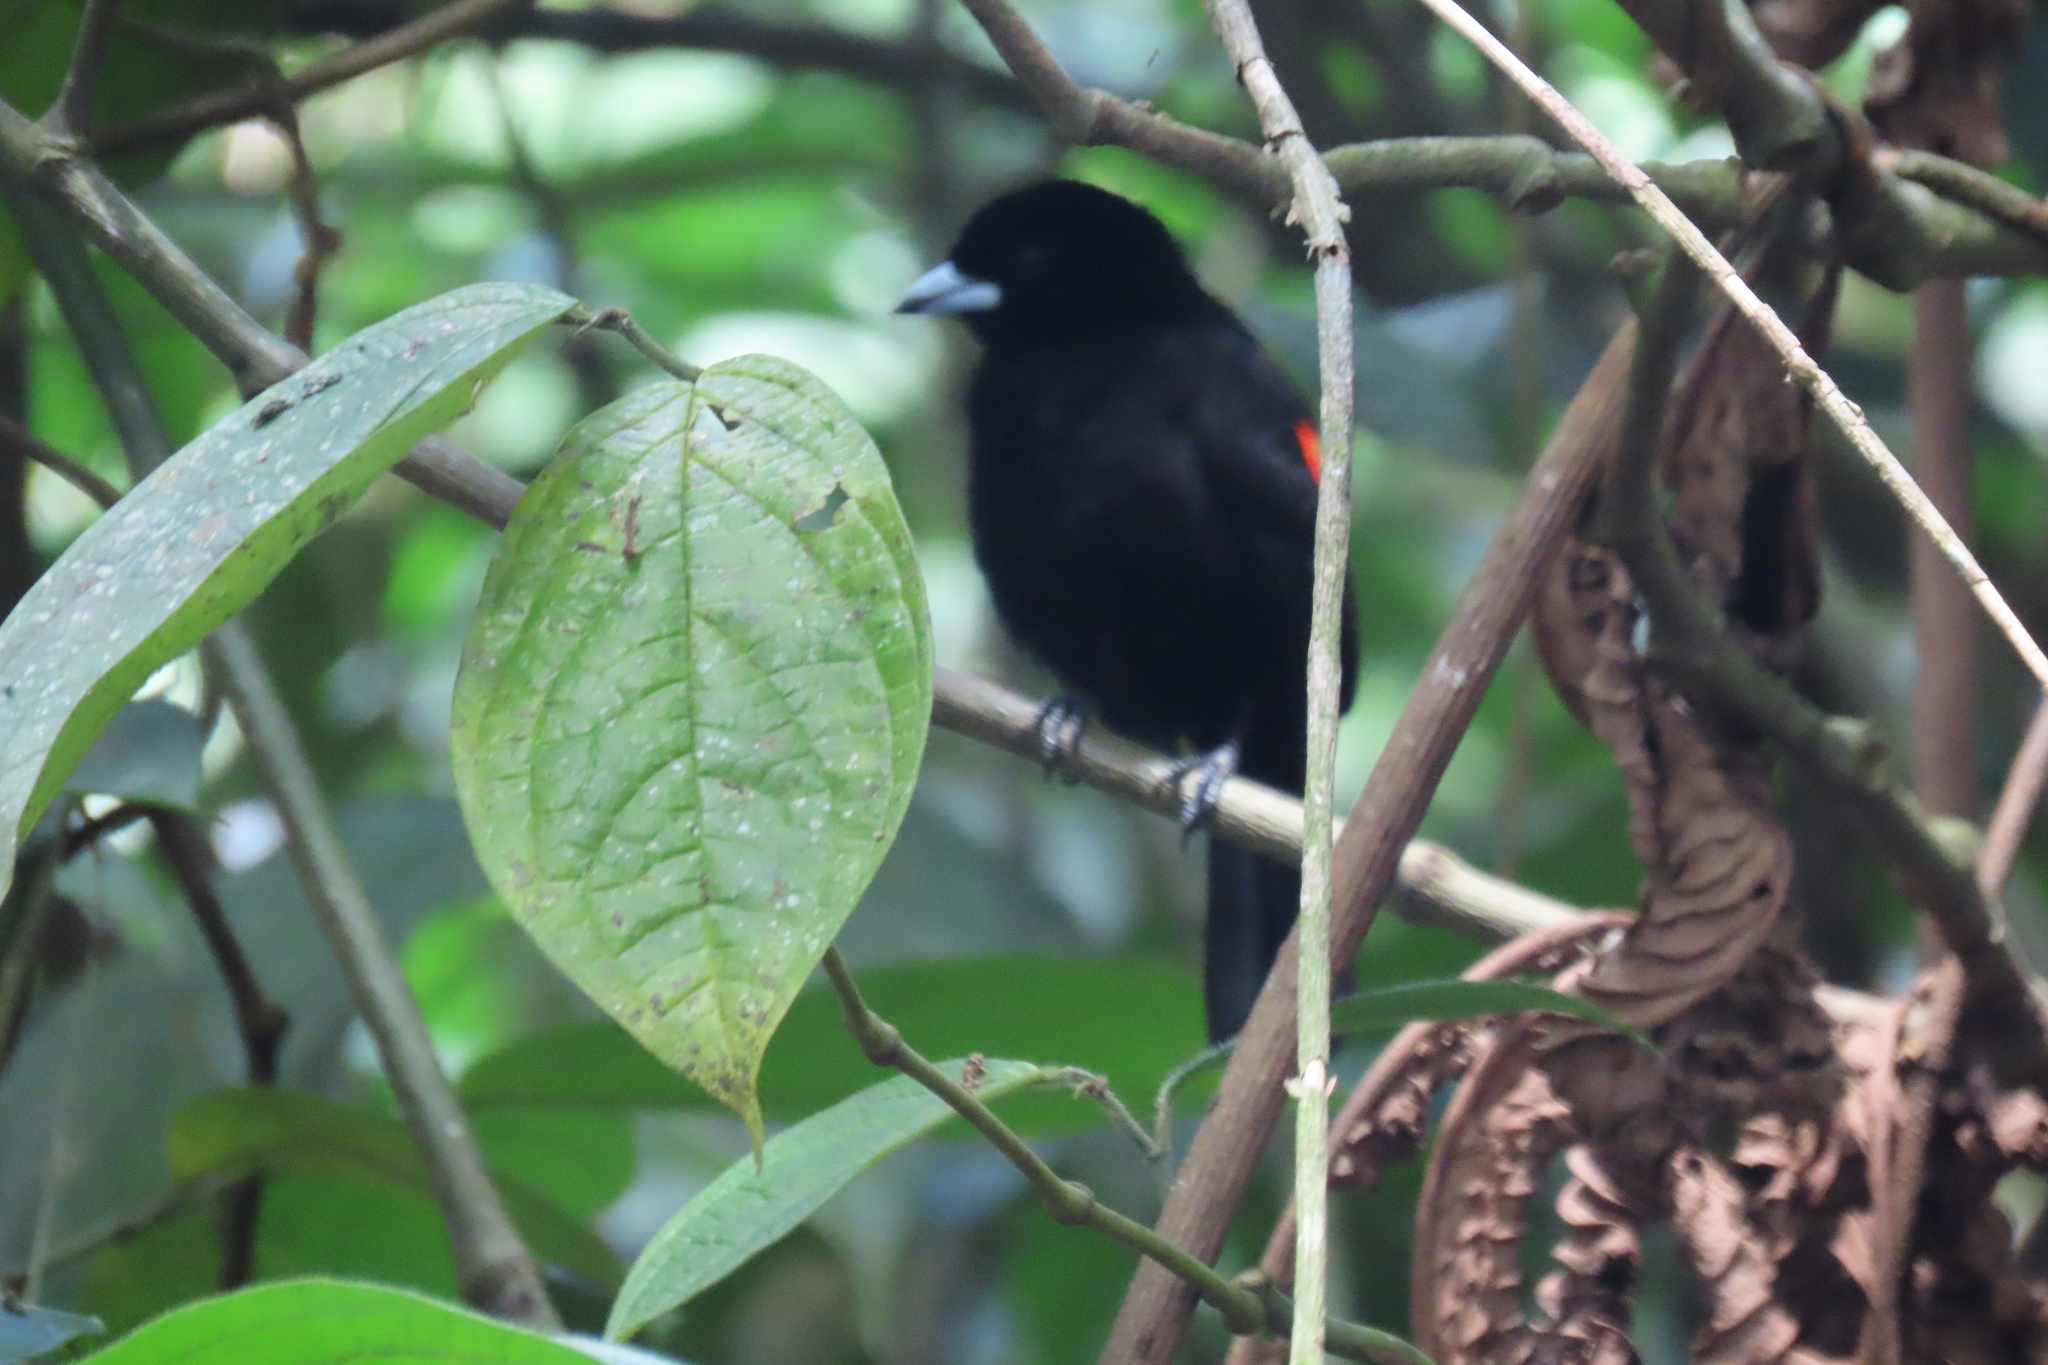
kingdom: Animalia
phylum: Chordata
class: Aves
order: Passeriformes
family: Thraupidae
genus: Ramphocelus
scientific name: Ramphocelus passerinii
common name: Passerini's tanager
